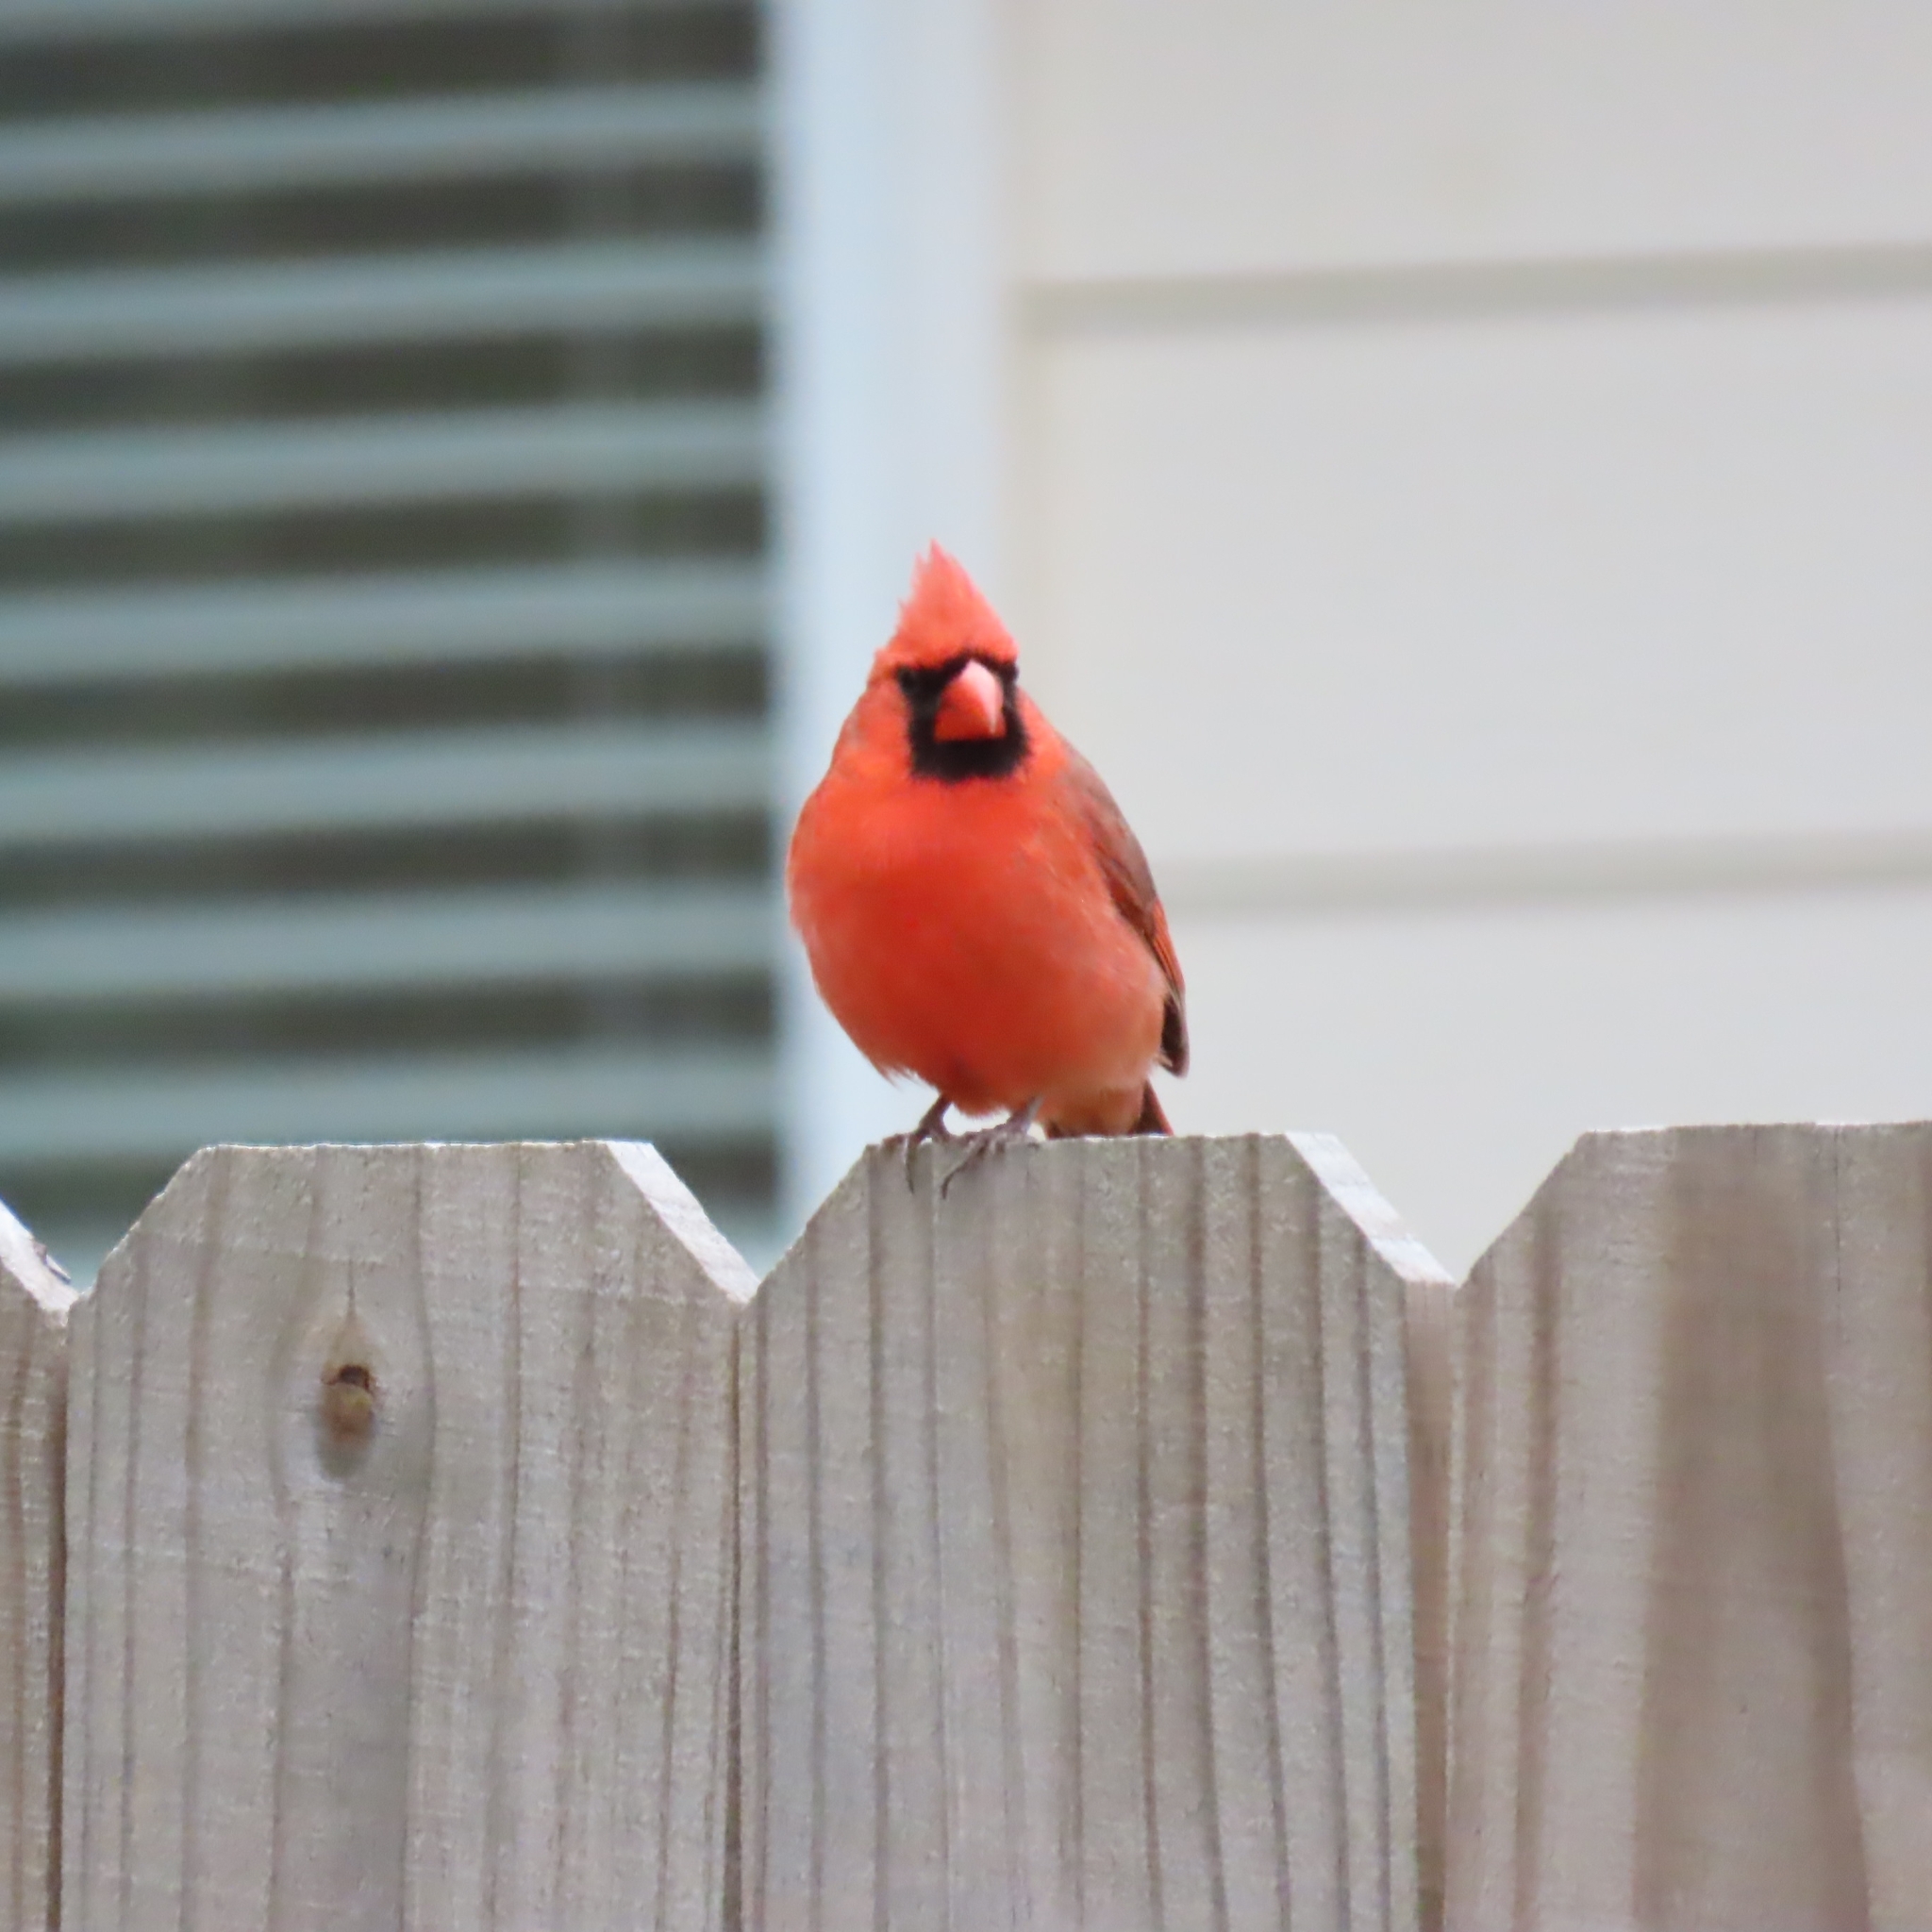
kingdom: Animalia
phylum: Chordata
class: Aves
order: Passeriformes
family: Cardinalidae
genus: Cardinalis
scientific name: Cardinalis cardinalis
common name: Northern cardinal
